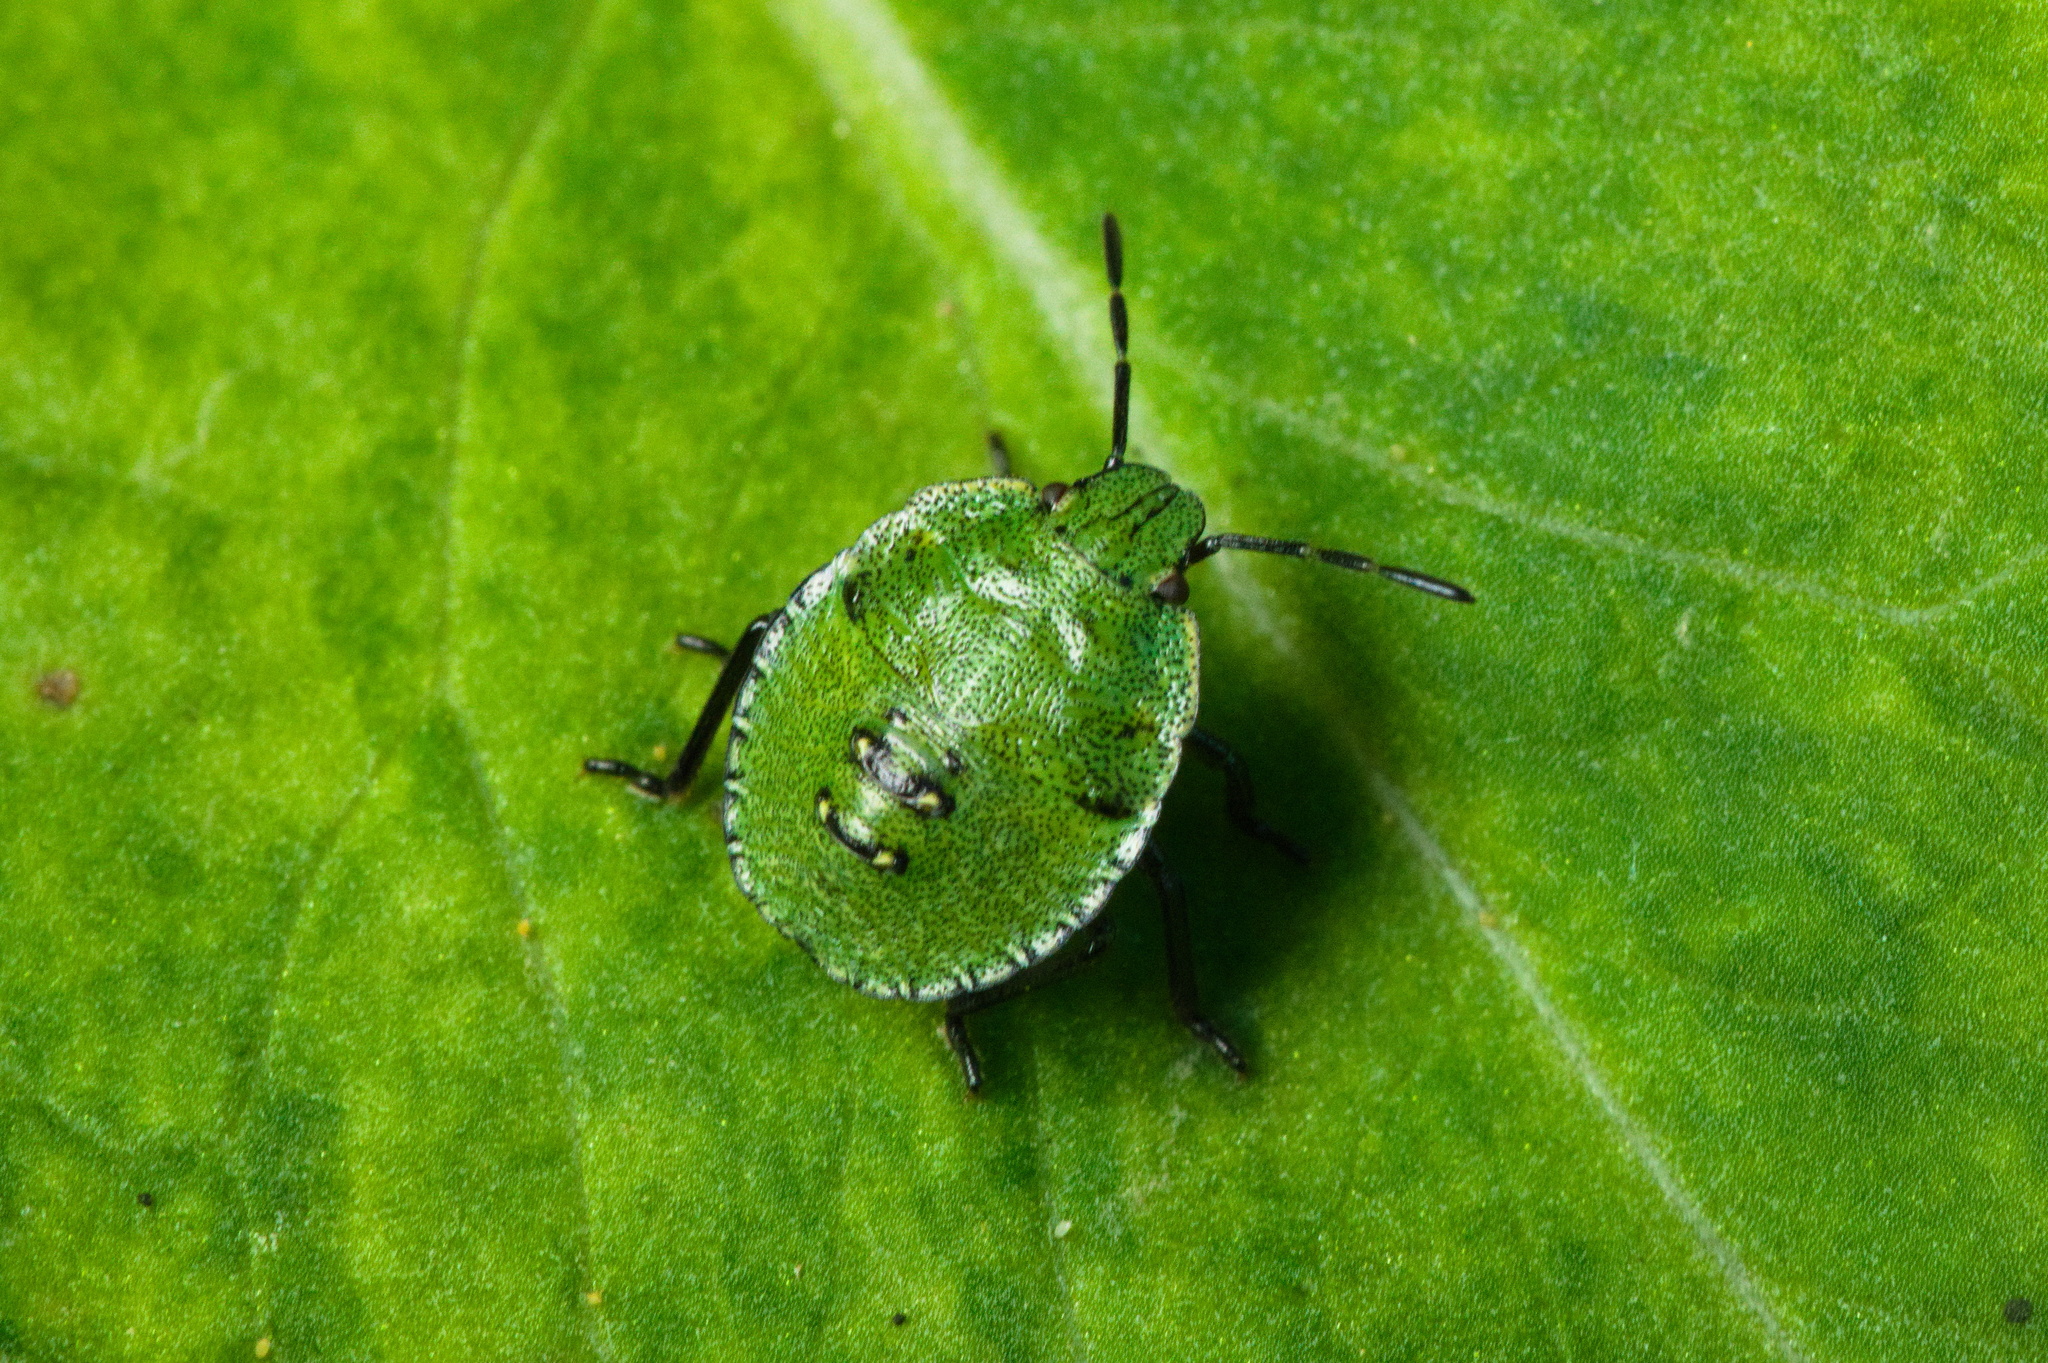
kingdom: Animalia
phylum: Arthropoda
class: Insecta
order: Hemiptera
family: Pentatomidae
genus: Palomena
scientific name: Palomena prasina
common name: Green shieldbug
